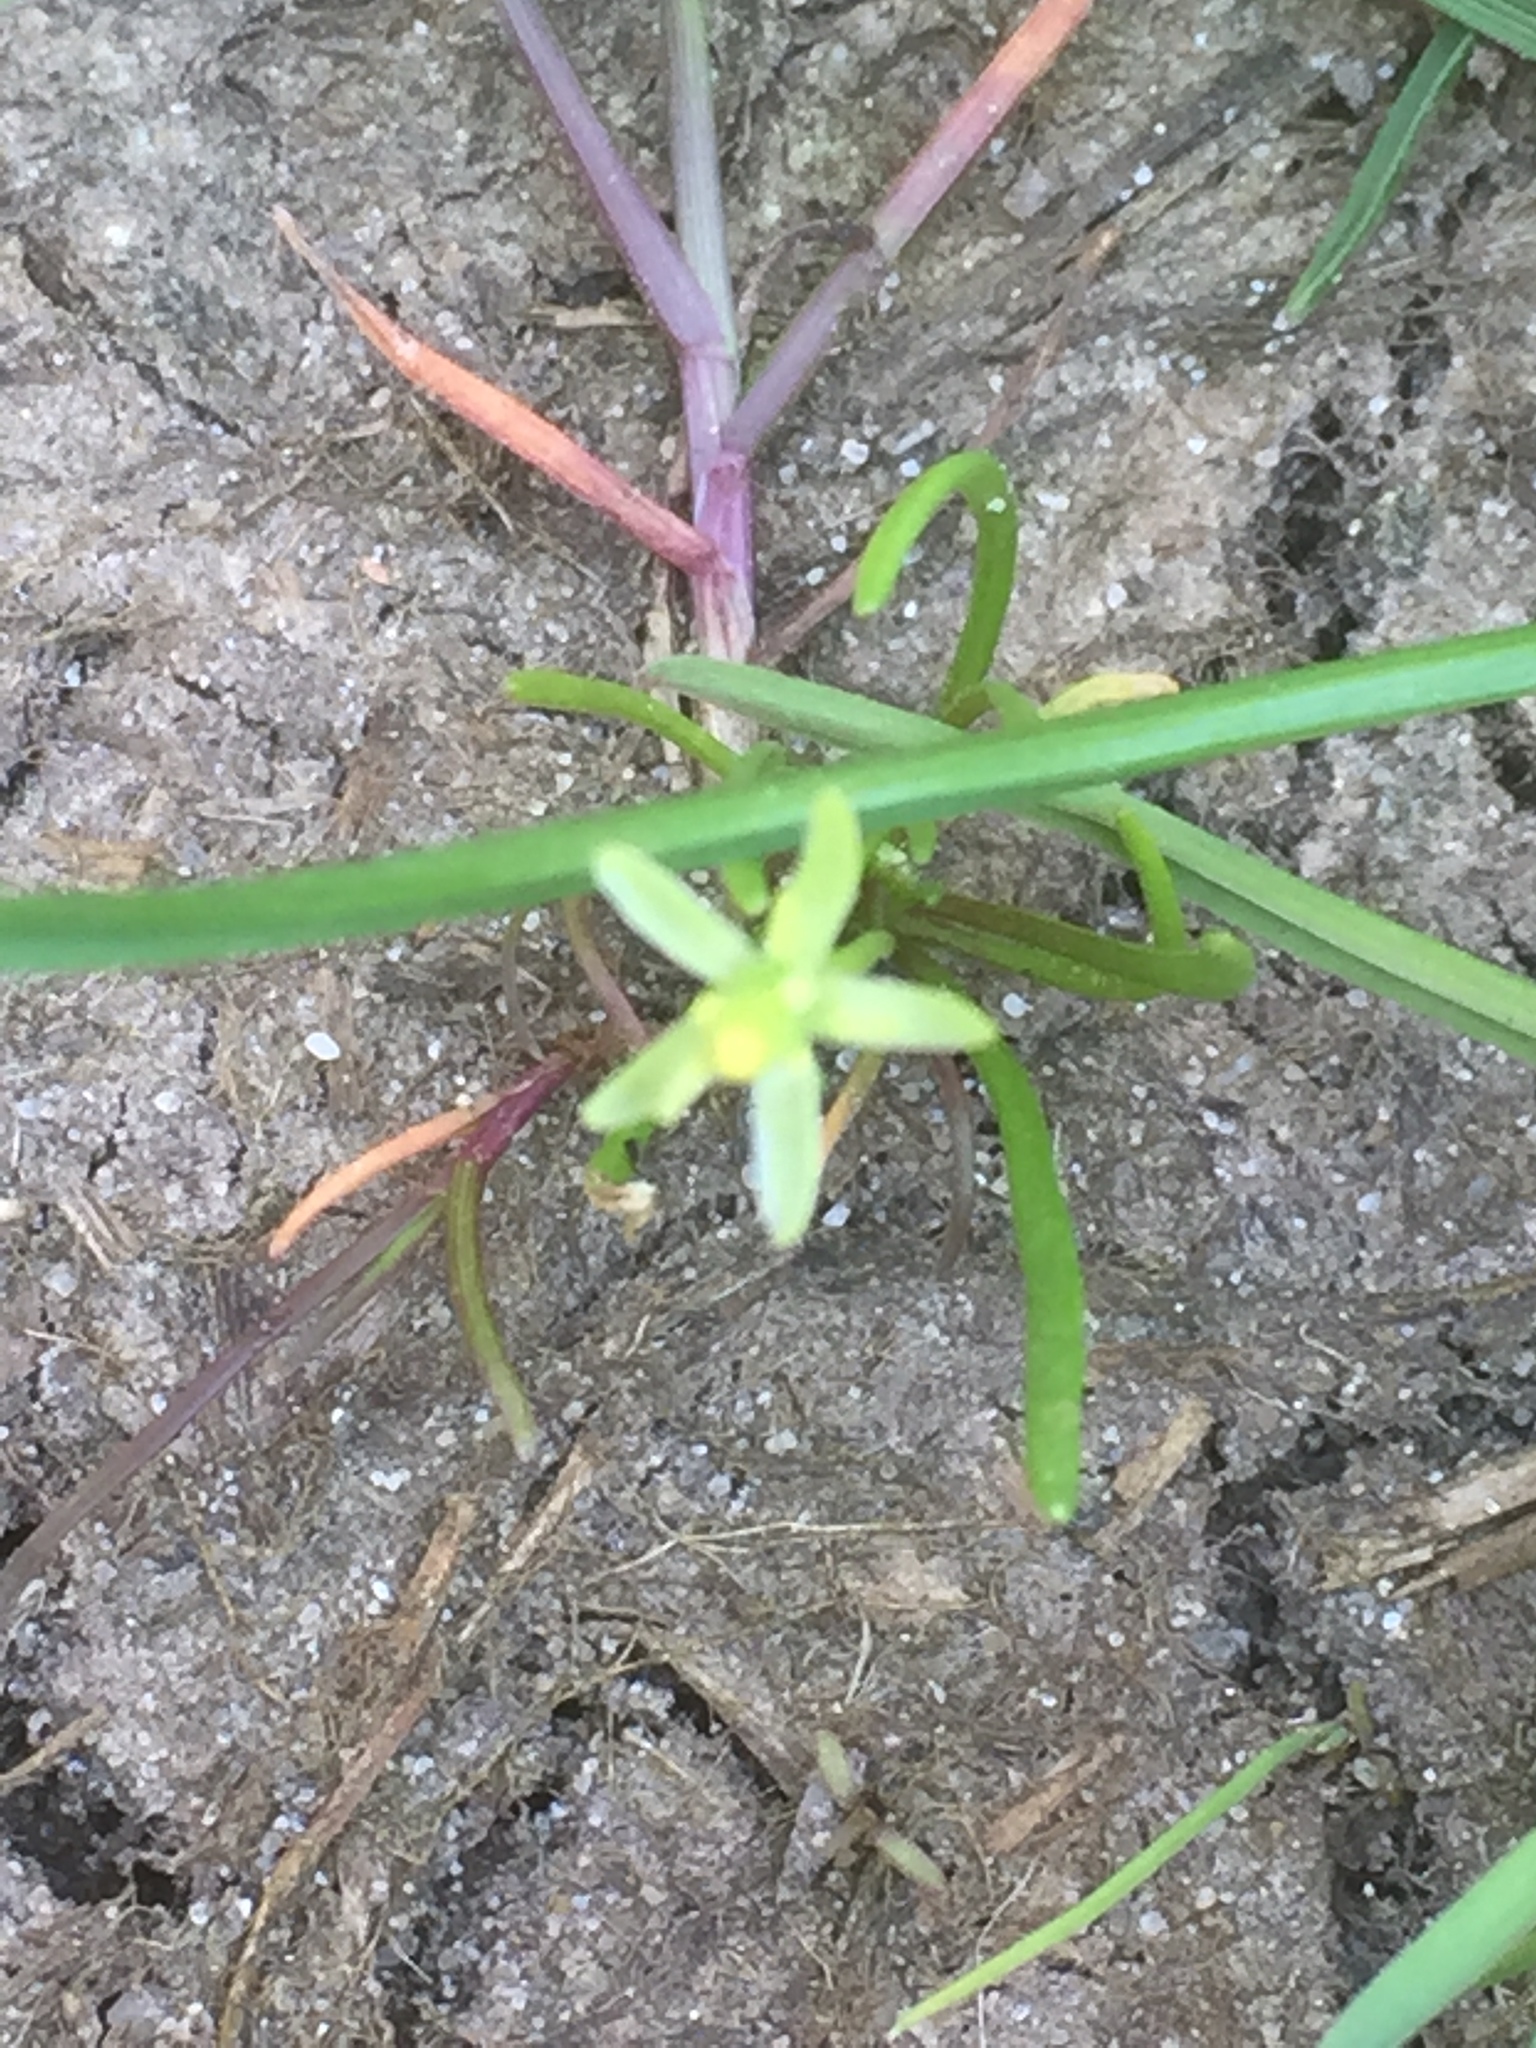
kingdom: Plantae
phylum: Tracheophyta
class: Magnoliopsida
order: Ranunculales
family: Ranunculaceae
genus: Myosurus
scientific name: Myosurus minimus
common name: Mousetail
